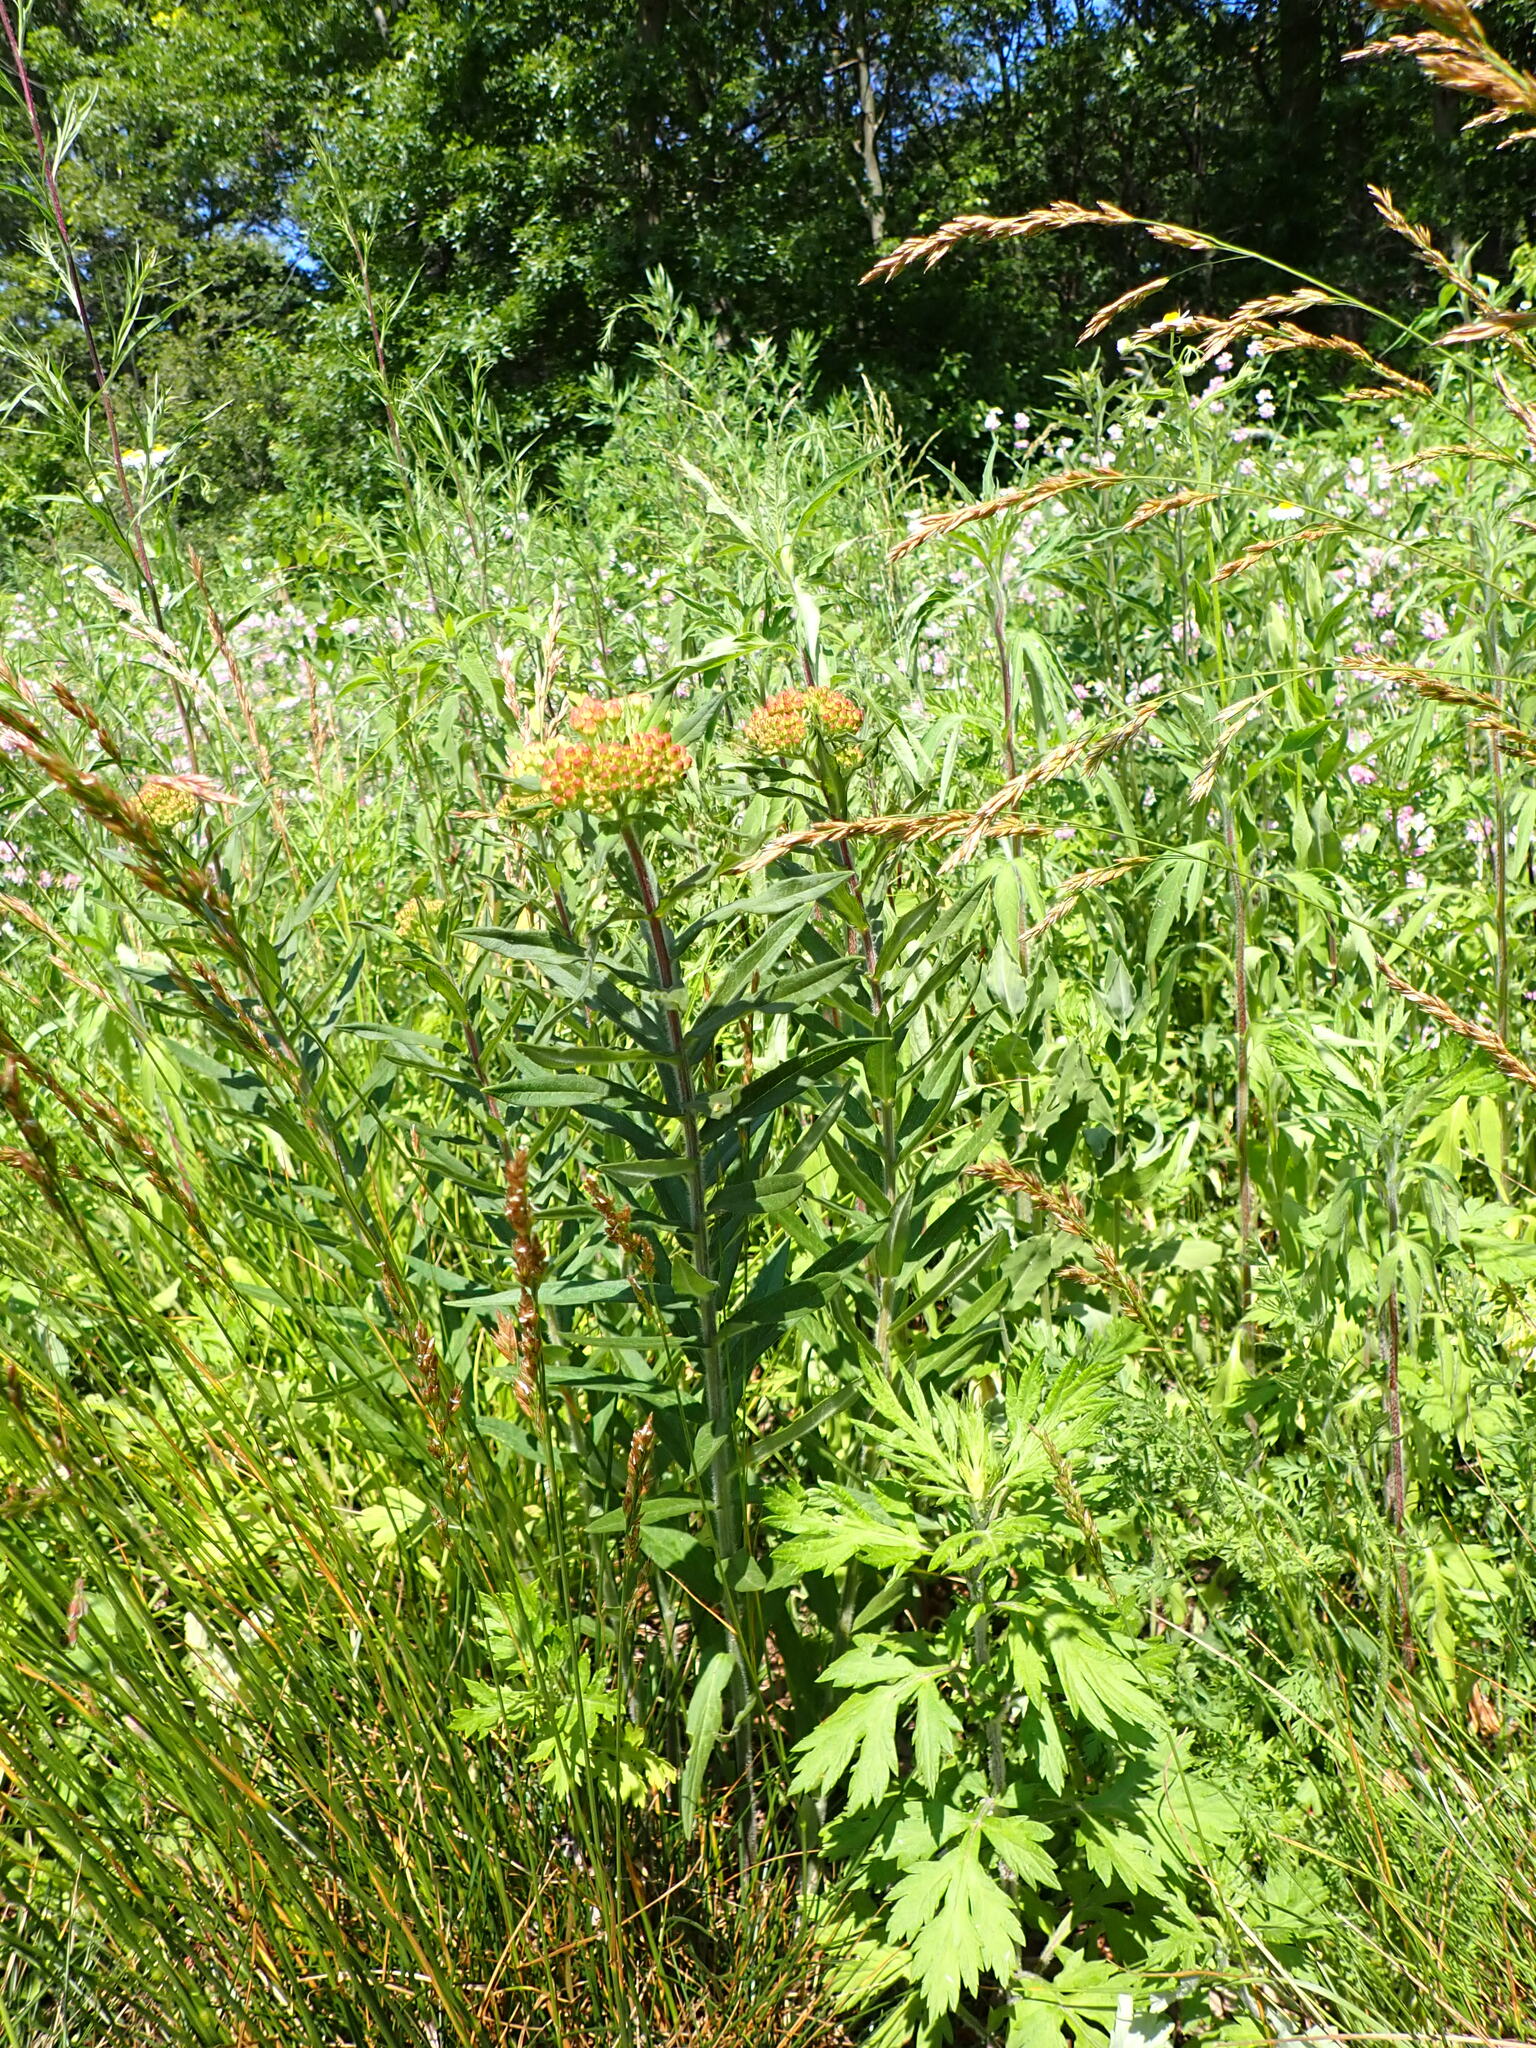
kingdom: Plantae
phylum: Tracheophyta
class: Magnoliopsida
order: Gentianales
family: Apocynaceae
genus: Asclepias
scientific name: Asclepias tuberosa
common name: Butterfly milkweed
